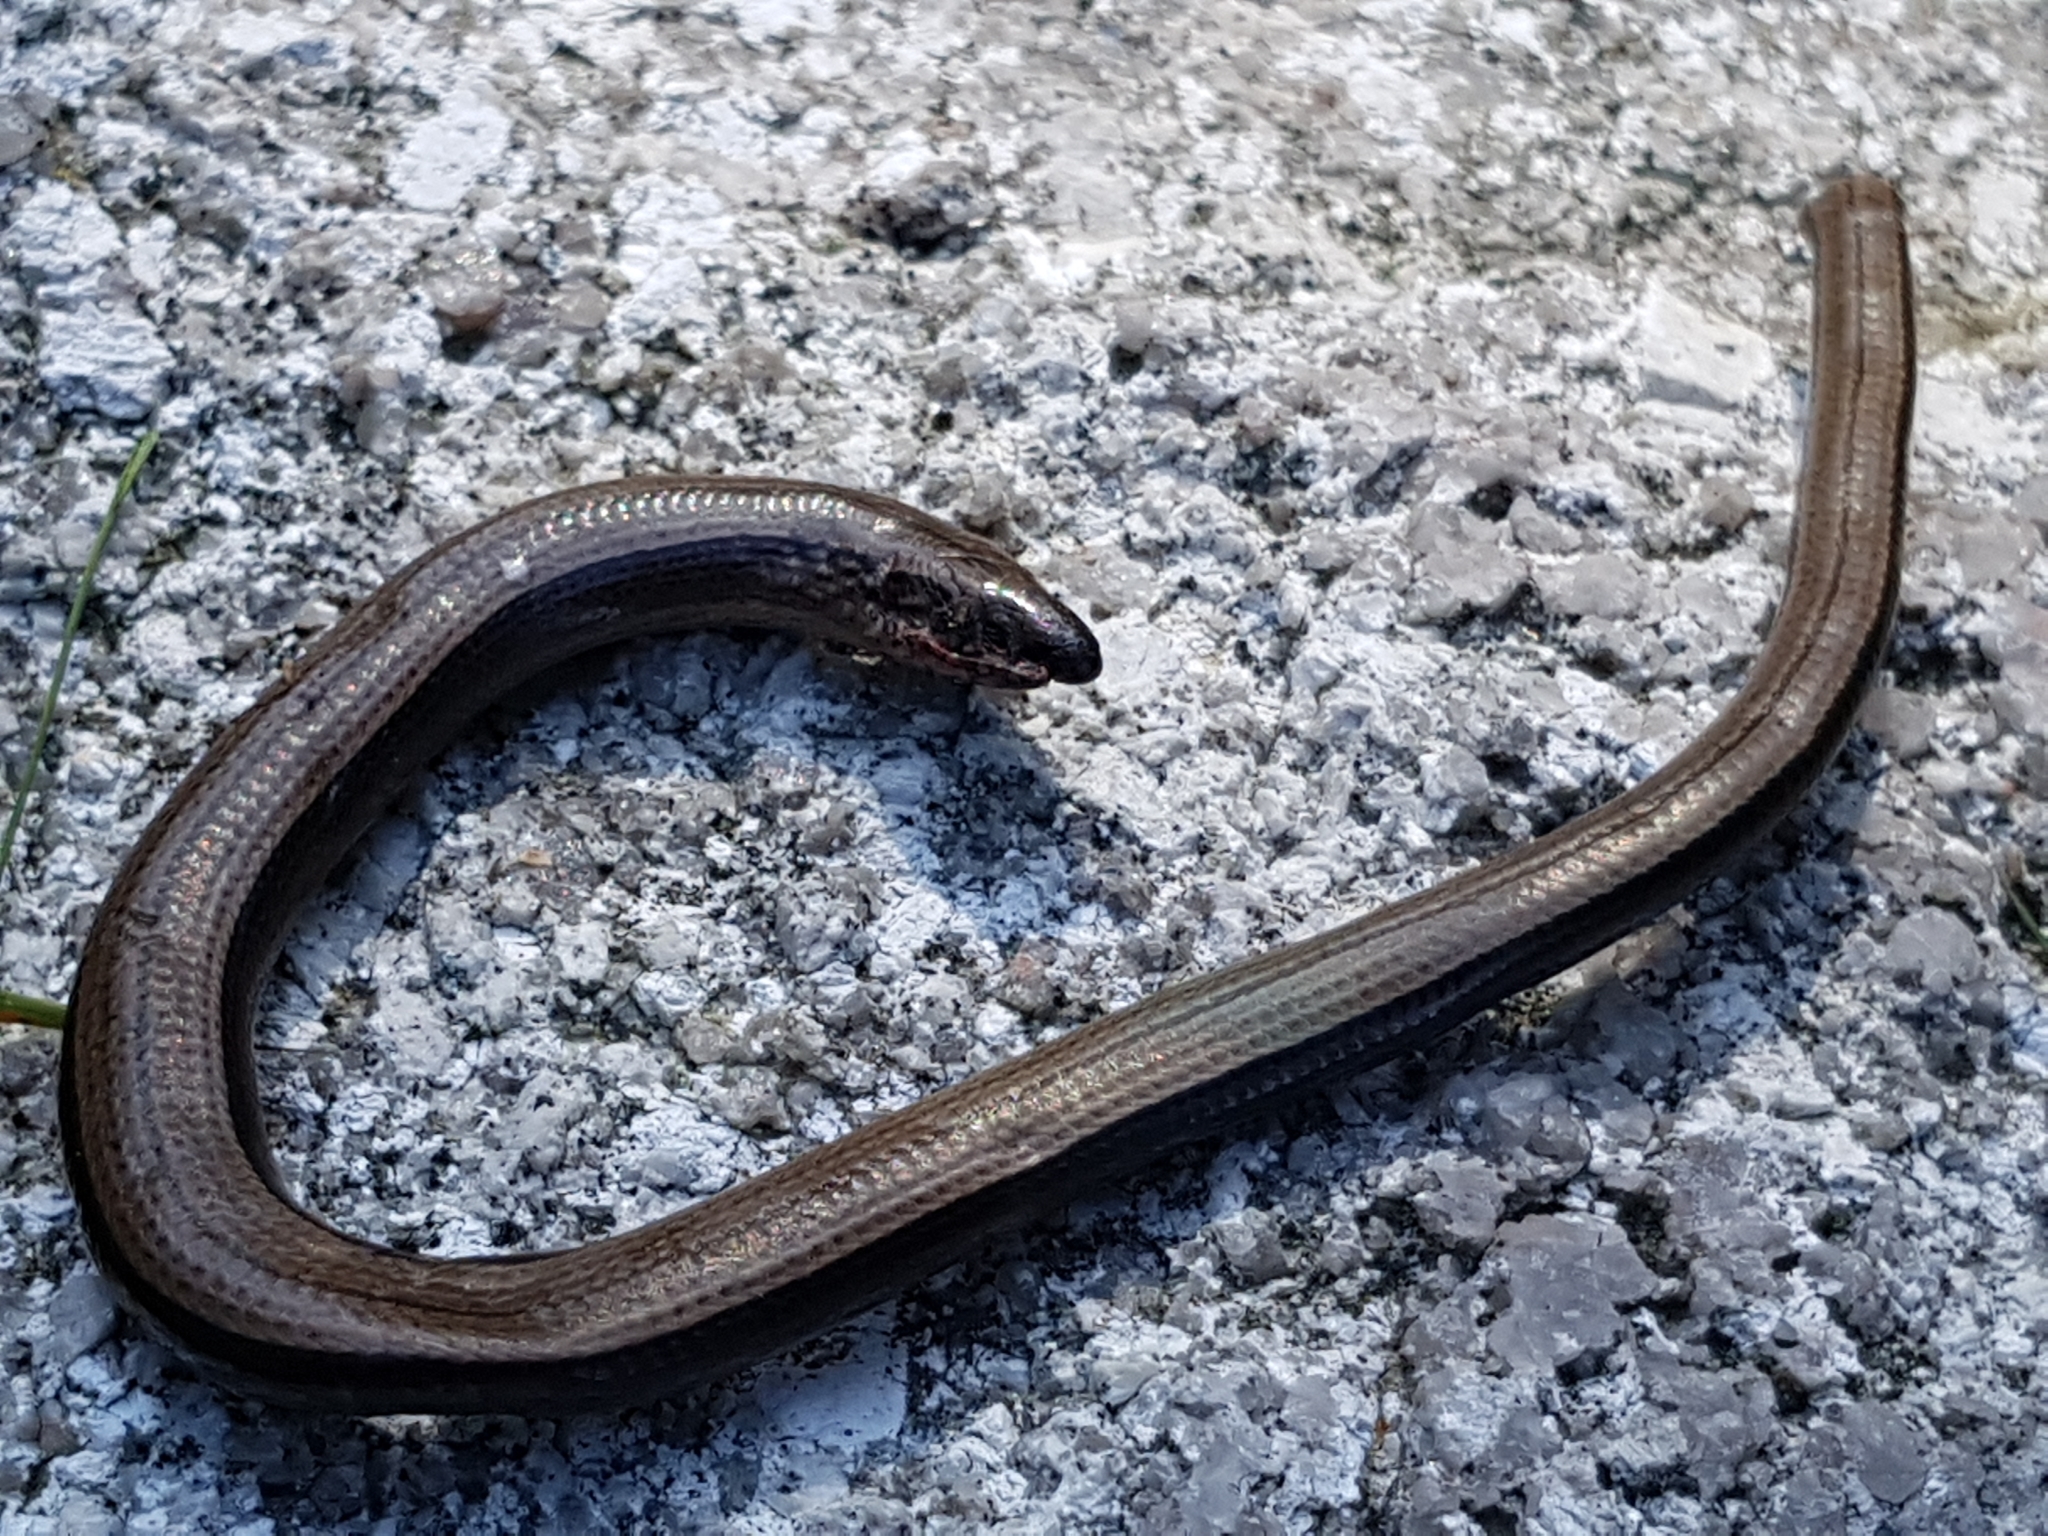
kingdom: Animalia
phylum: Chordata
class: Squamata
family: Anguidae
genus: Anguis
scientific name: Anguis fragilis
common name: Slow worm
